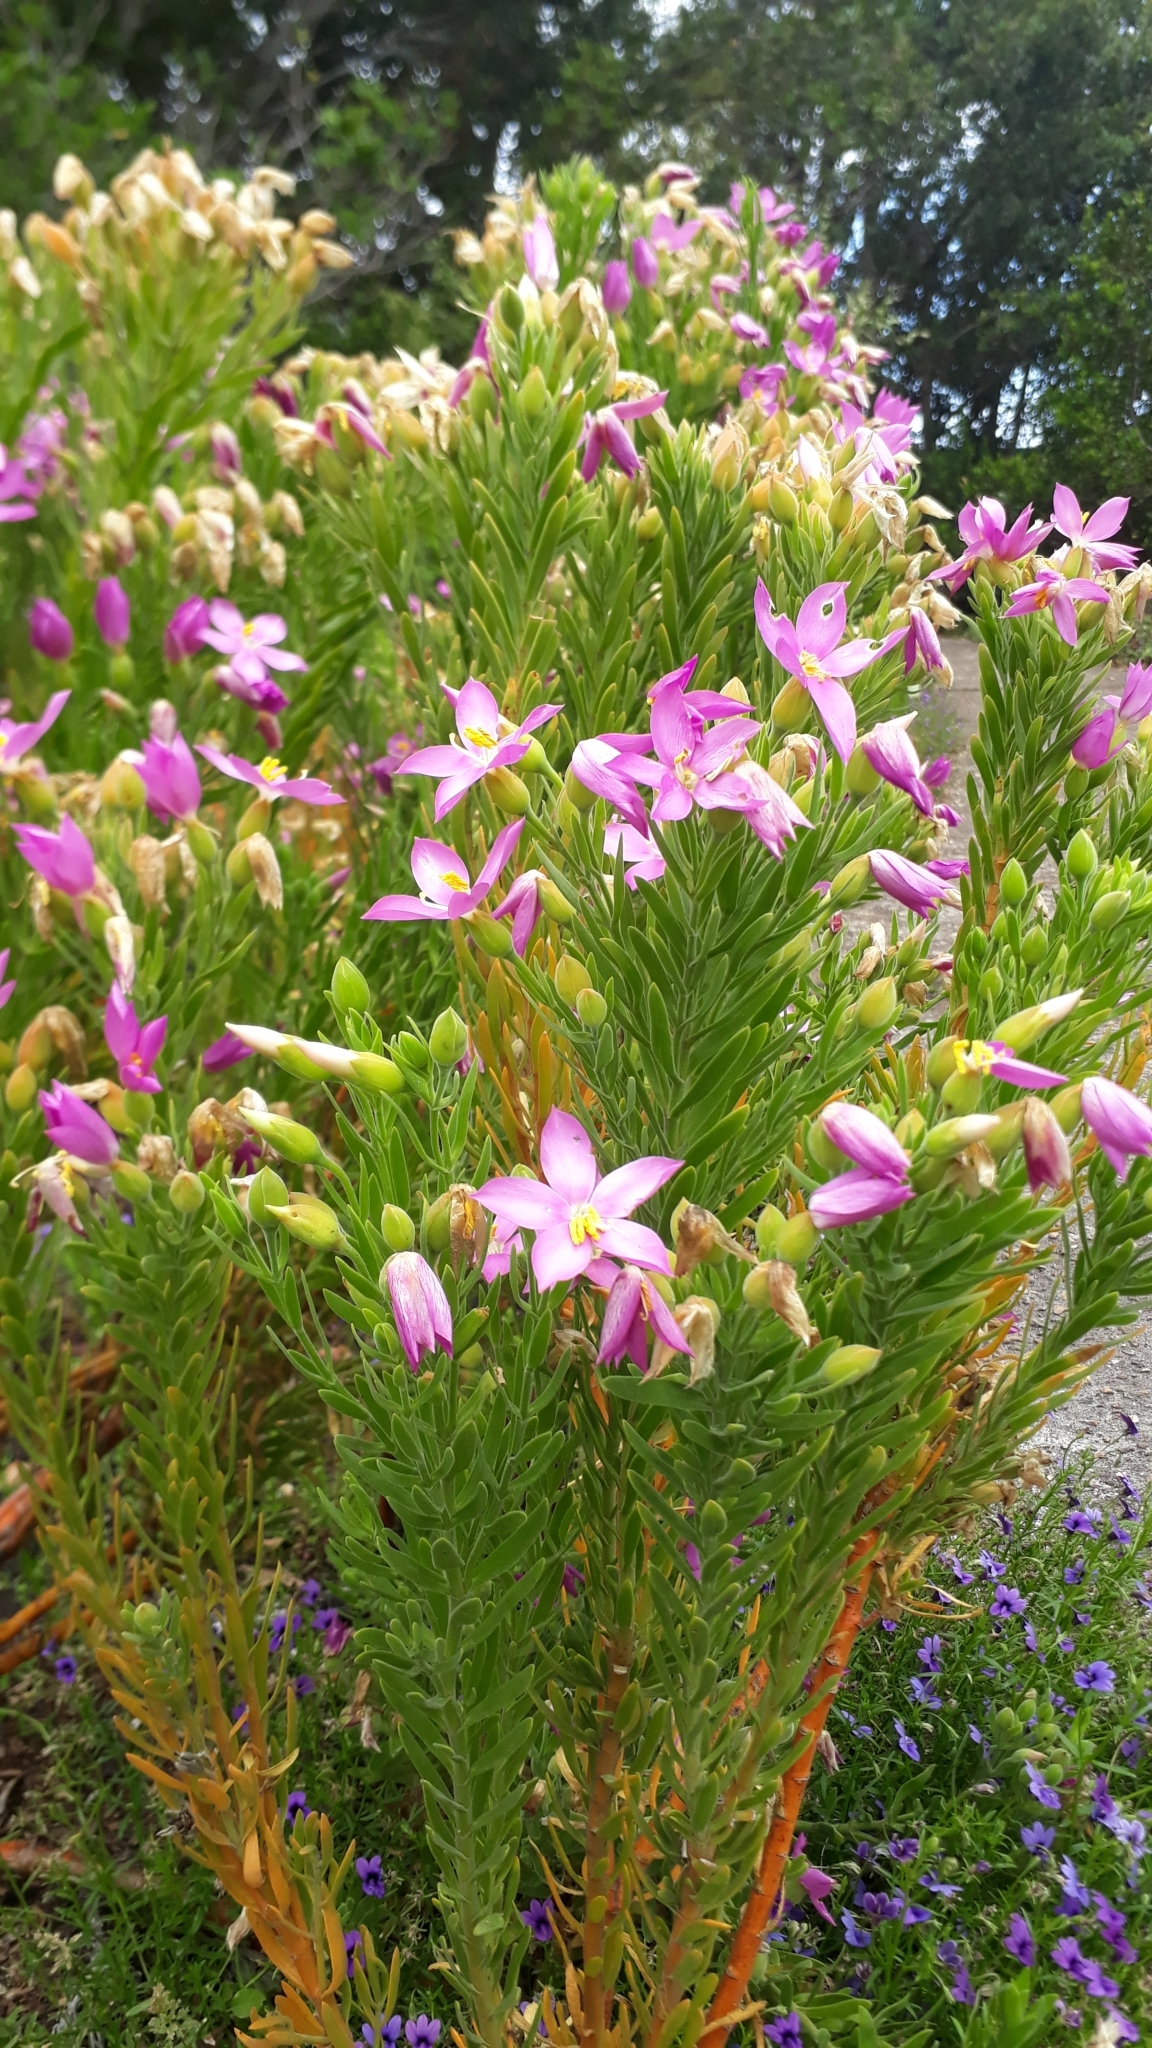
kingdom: Plantae
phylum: Tracheophyta
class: Magnoliopsida
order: Gentianales
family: Gentianaceae
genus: Orphium
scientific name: Orphium frutescens
